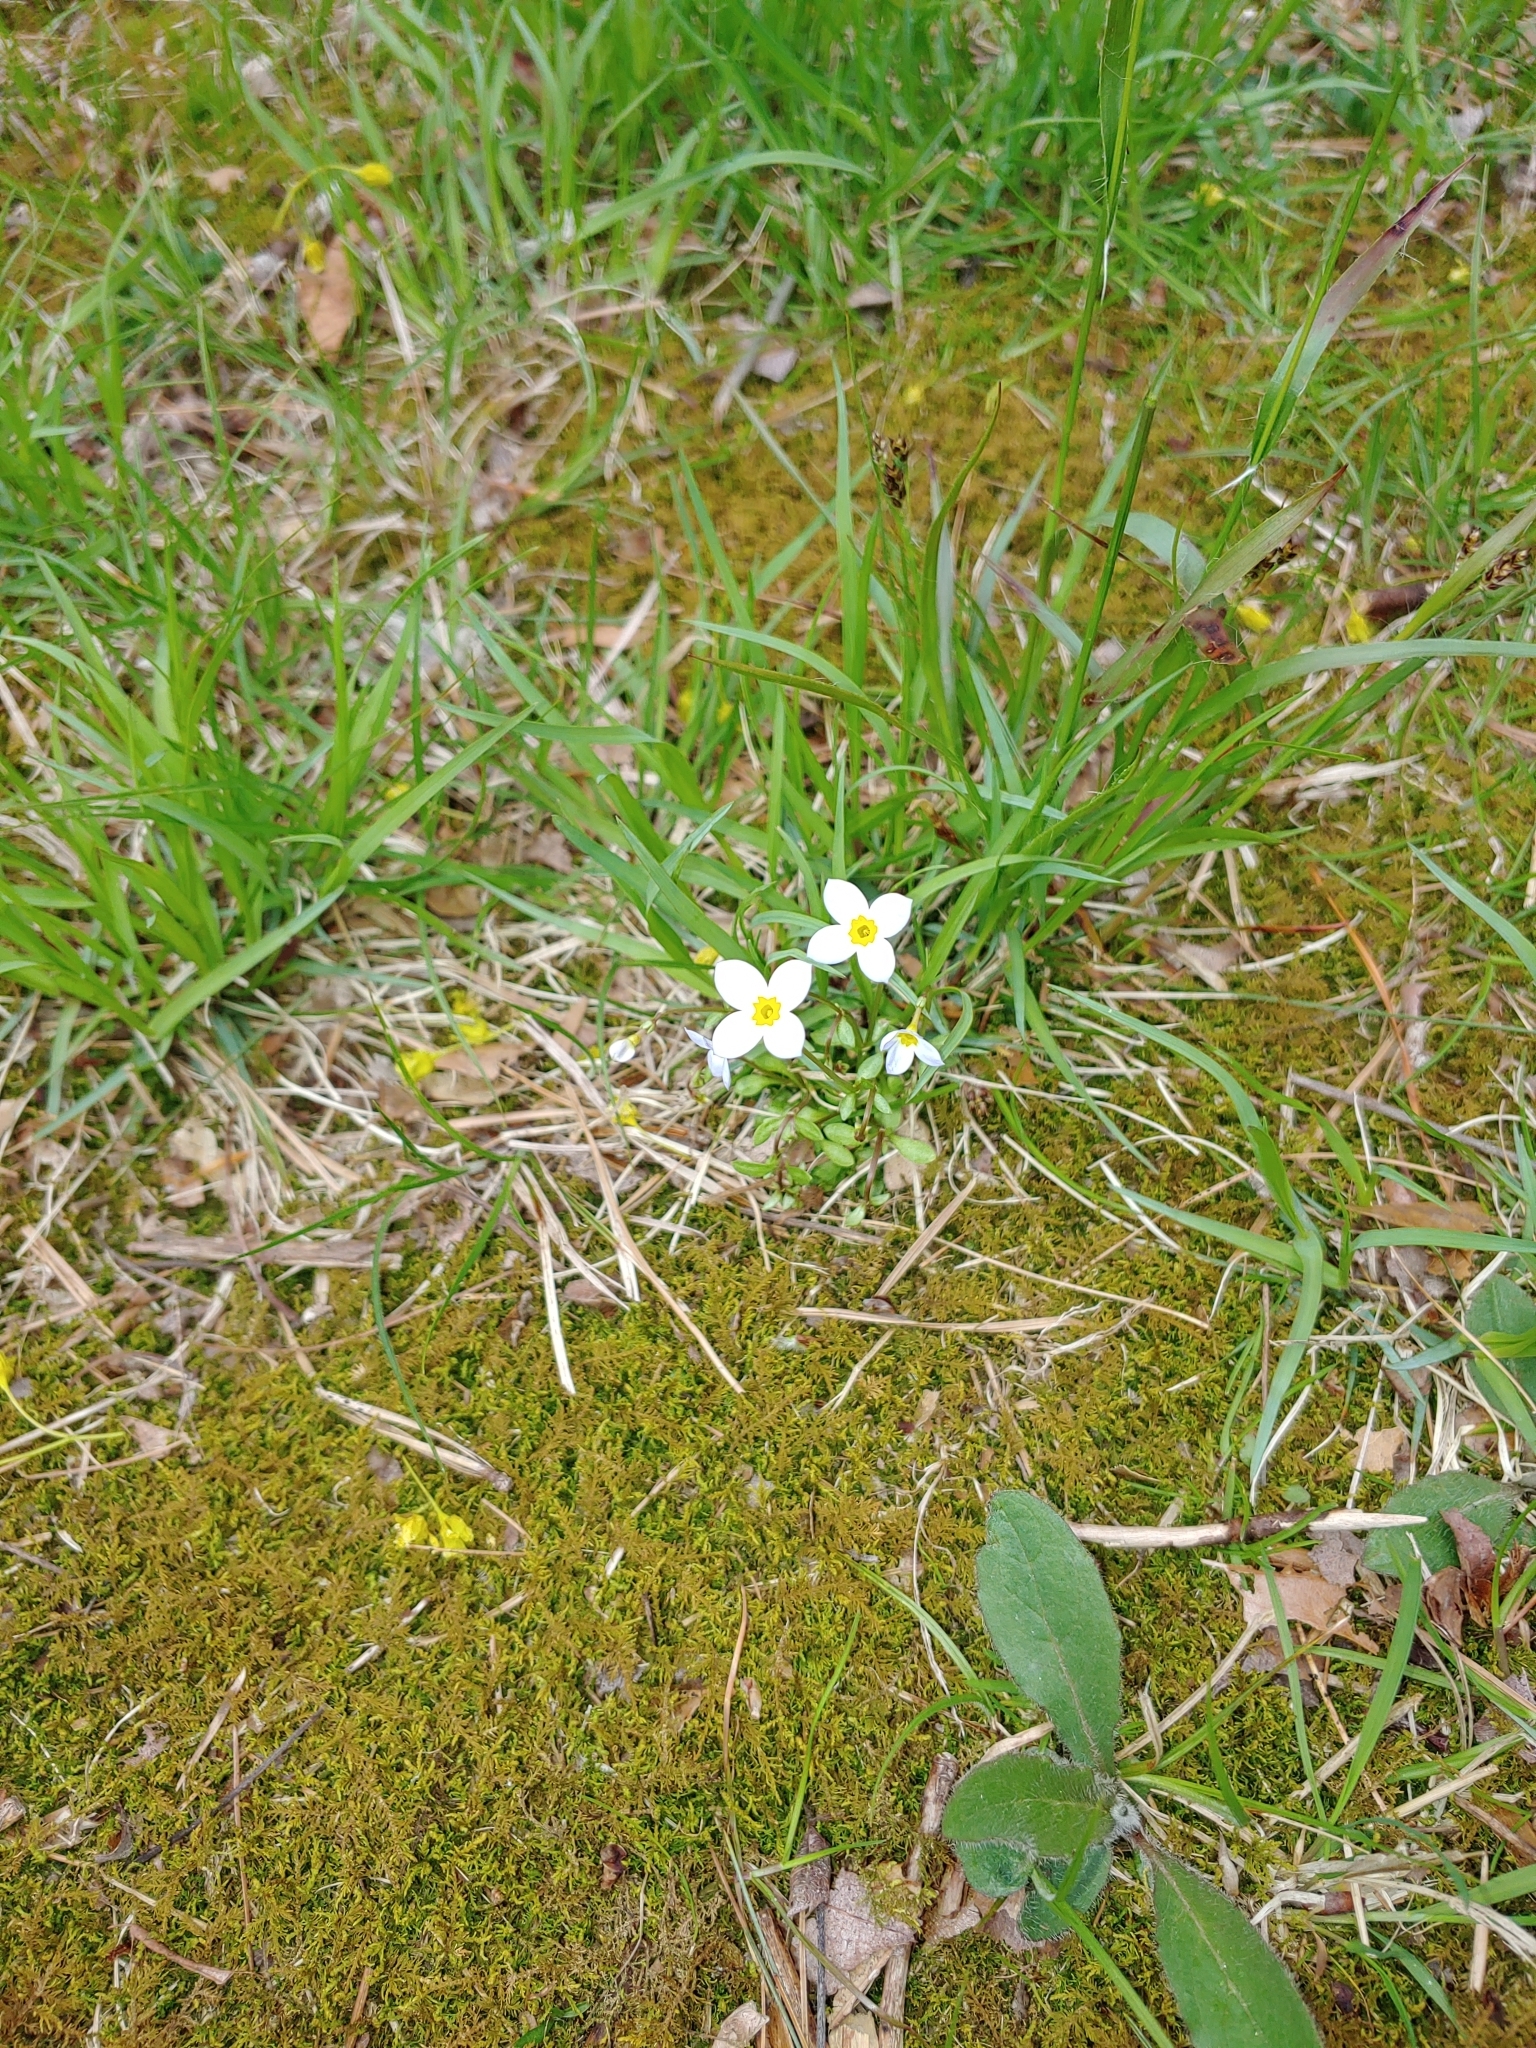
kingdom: Plantae
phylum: Tracheophyta
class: Magnoliopsida
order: Gentianales
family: Rubiaceae
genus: Houstonia
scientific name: Houstonia caerulea
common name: Bluets
